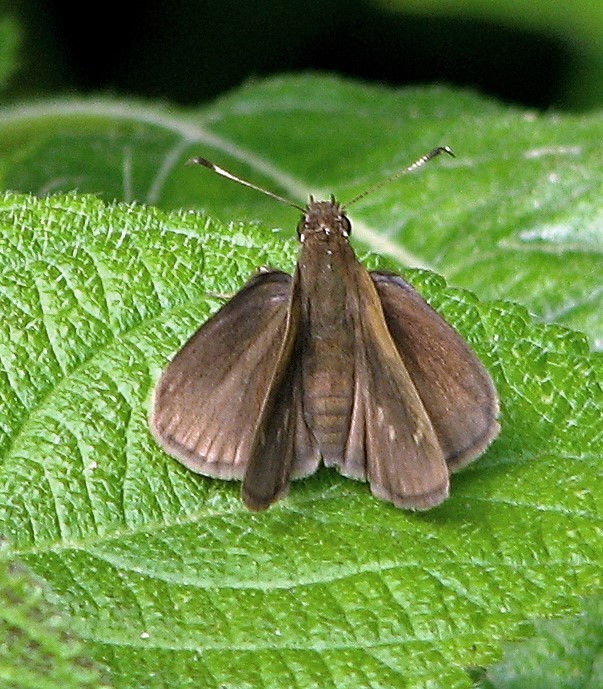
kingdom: Animalia
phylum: Arthropoda
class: Insecta
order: Lepidoptera
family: Hesperiidae
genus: Cymaenes
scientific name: Cymaenes gisca
